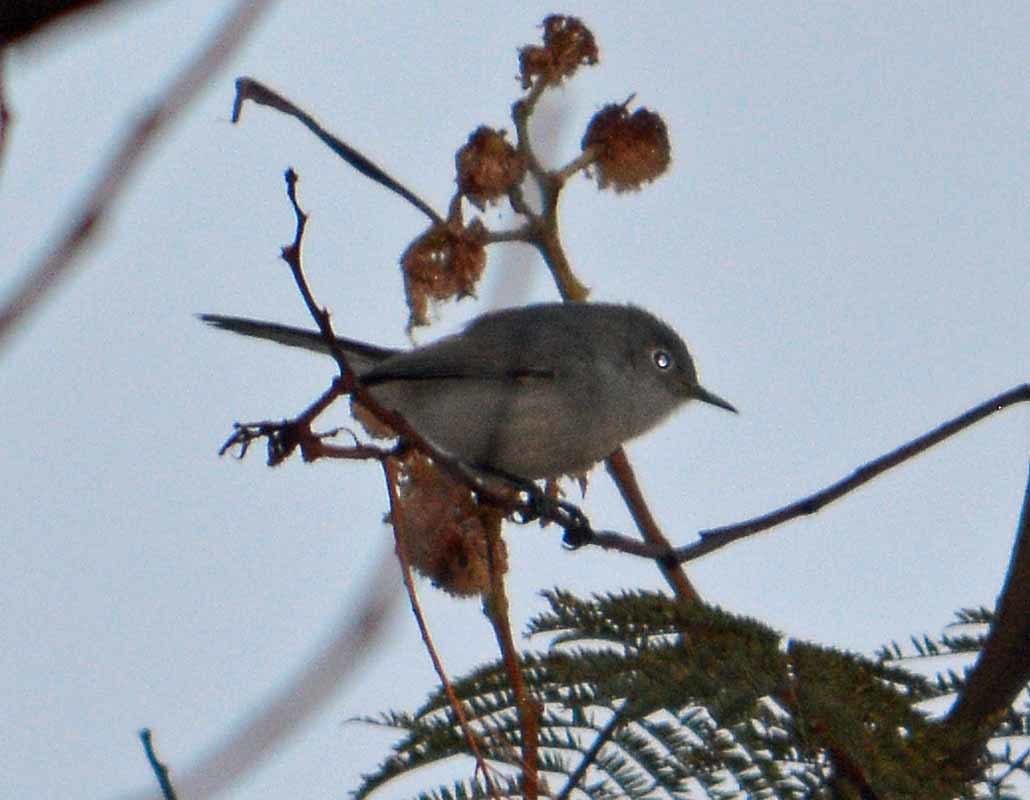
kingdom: Animalia
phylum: Chordata
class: Aves
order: Passeriformes
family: Polioptilidae
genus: Polioptila
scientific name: Polioptila caerulea
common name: Blue-gray gnatcatcher
